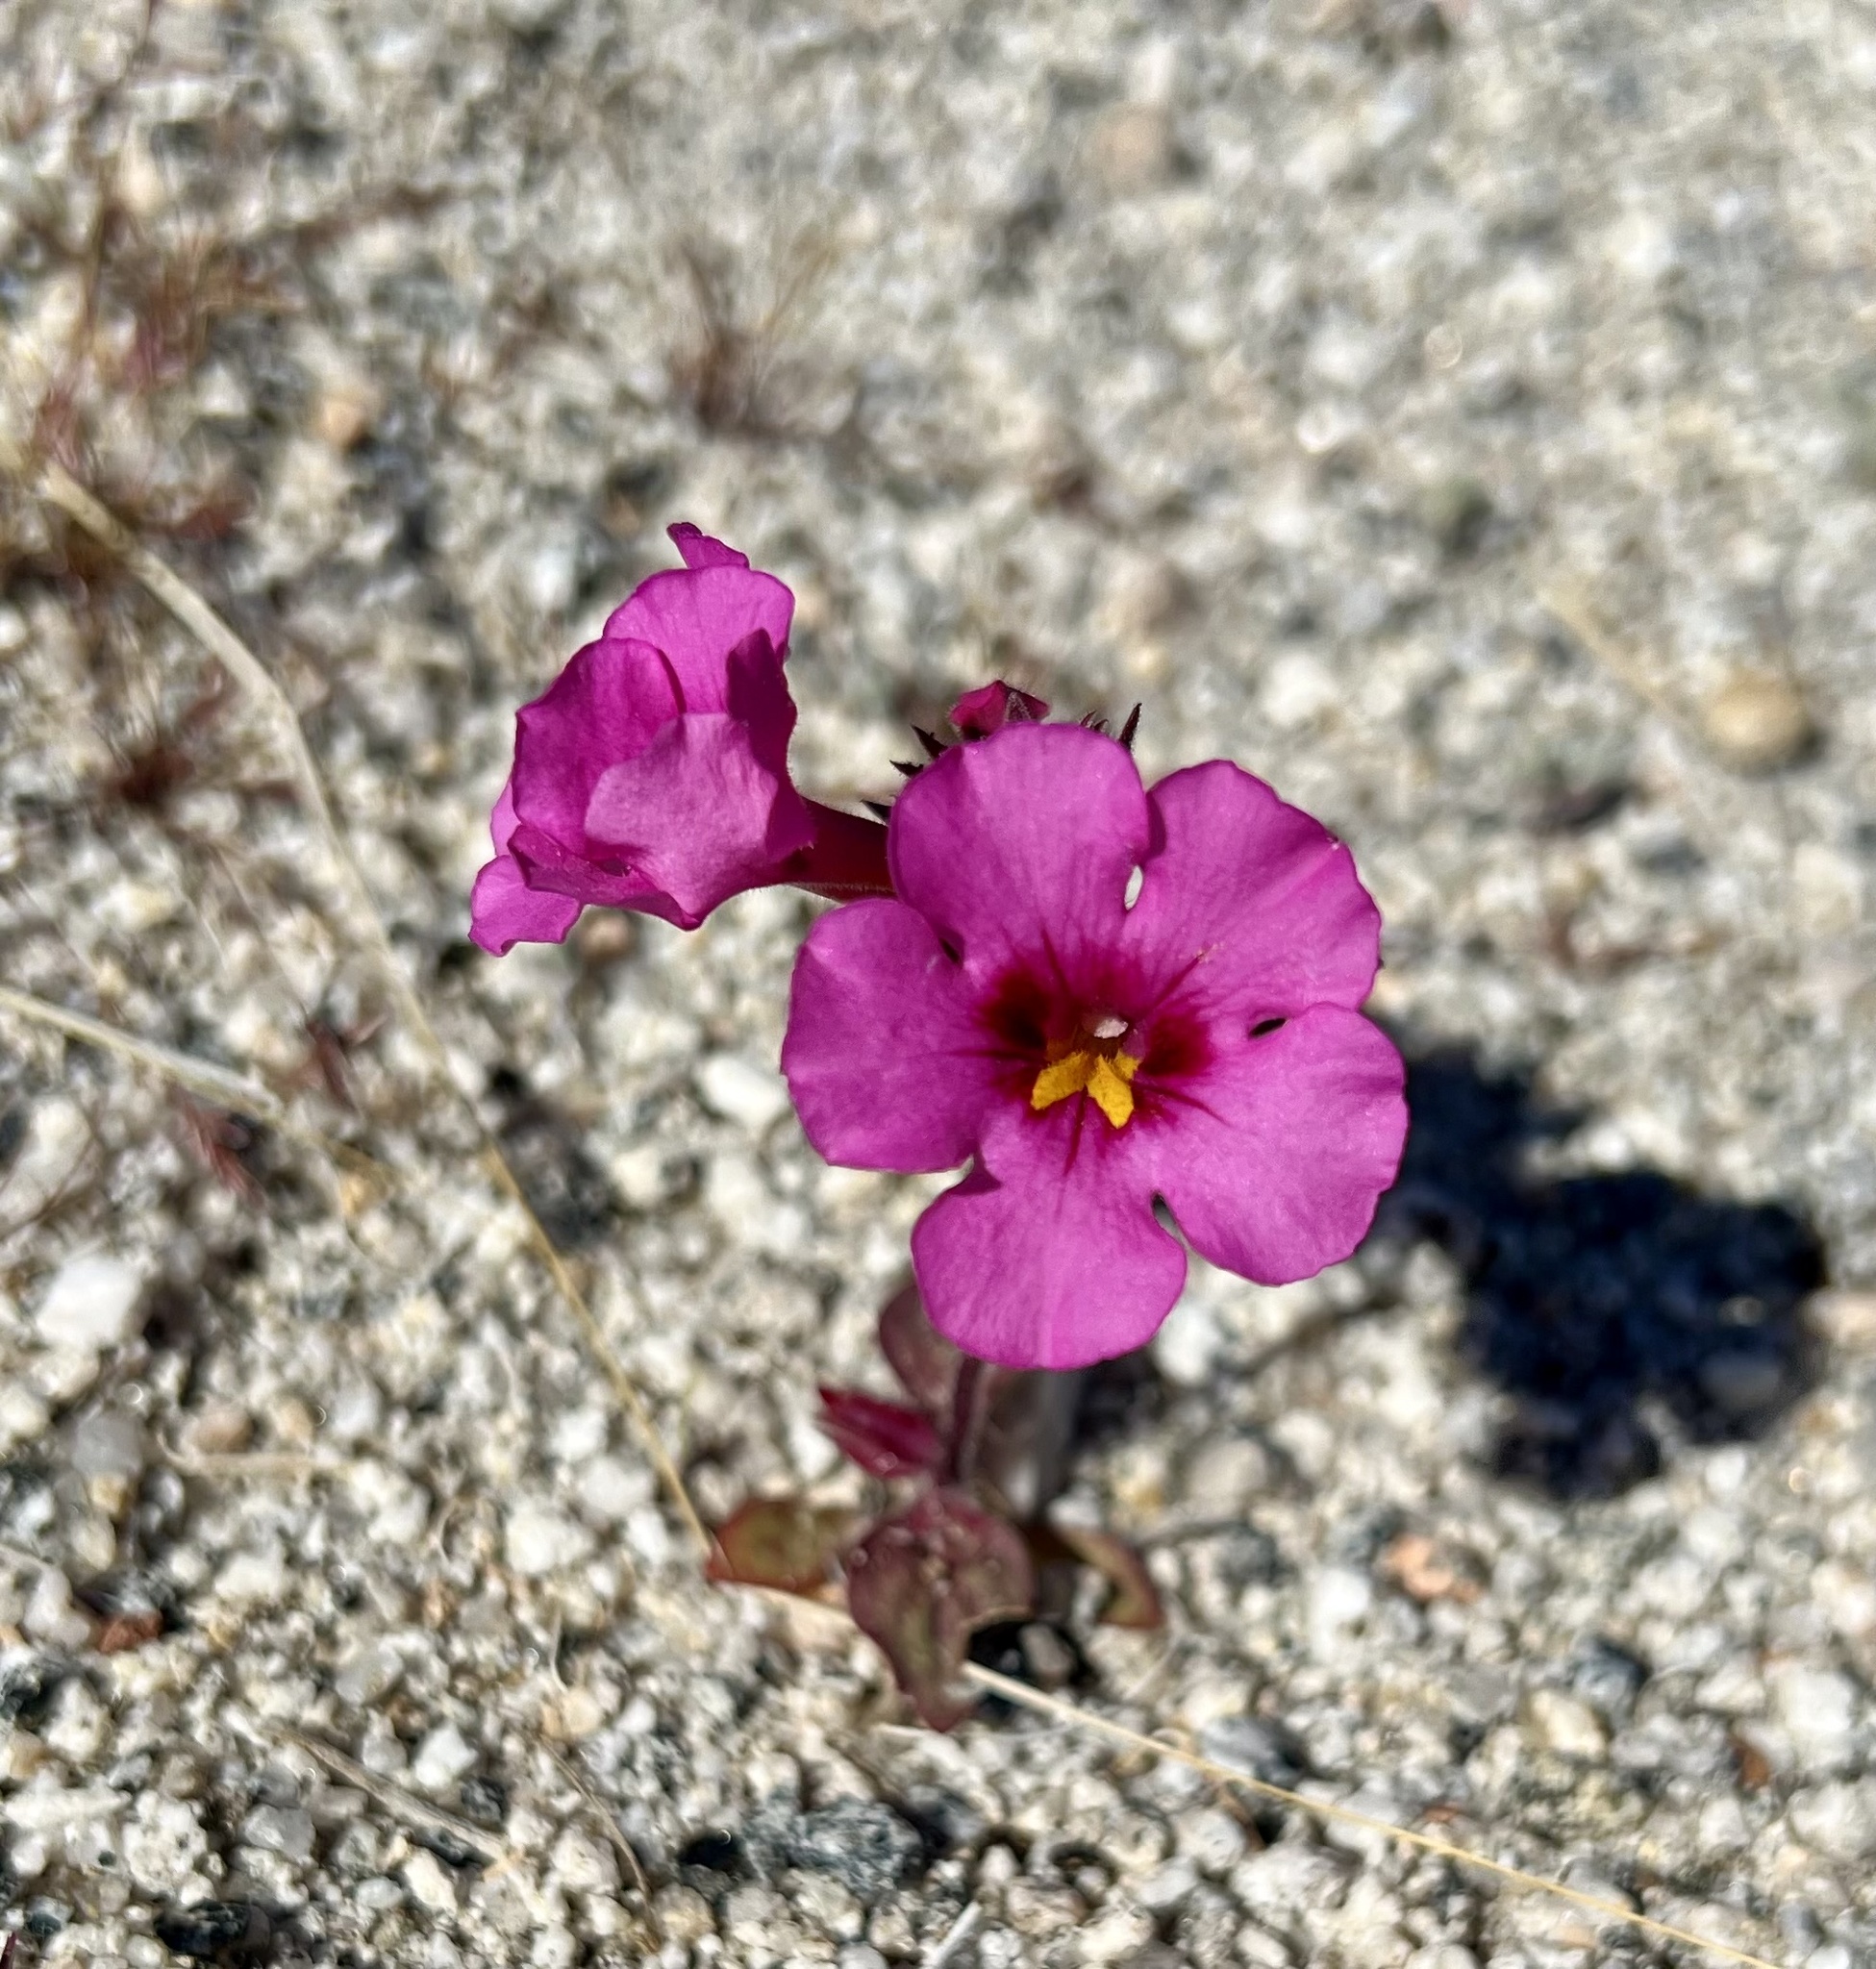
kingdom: Plantae
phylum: Tracheophyta
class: Magnoliopsida
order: Lamiales
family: Phrymaceae
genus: Diplacus
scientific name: Diplacus bigelovii
